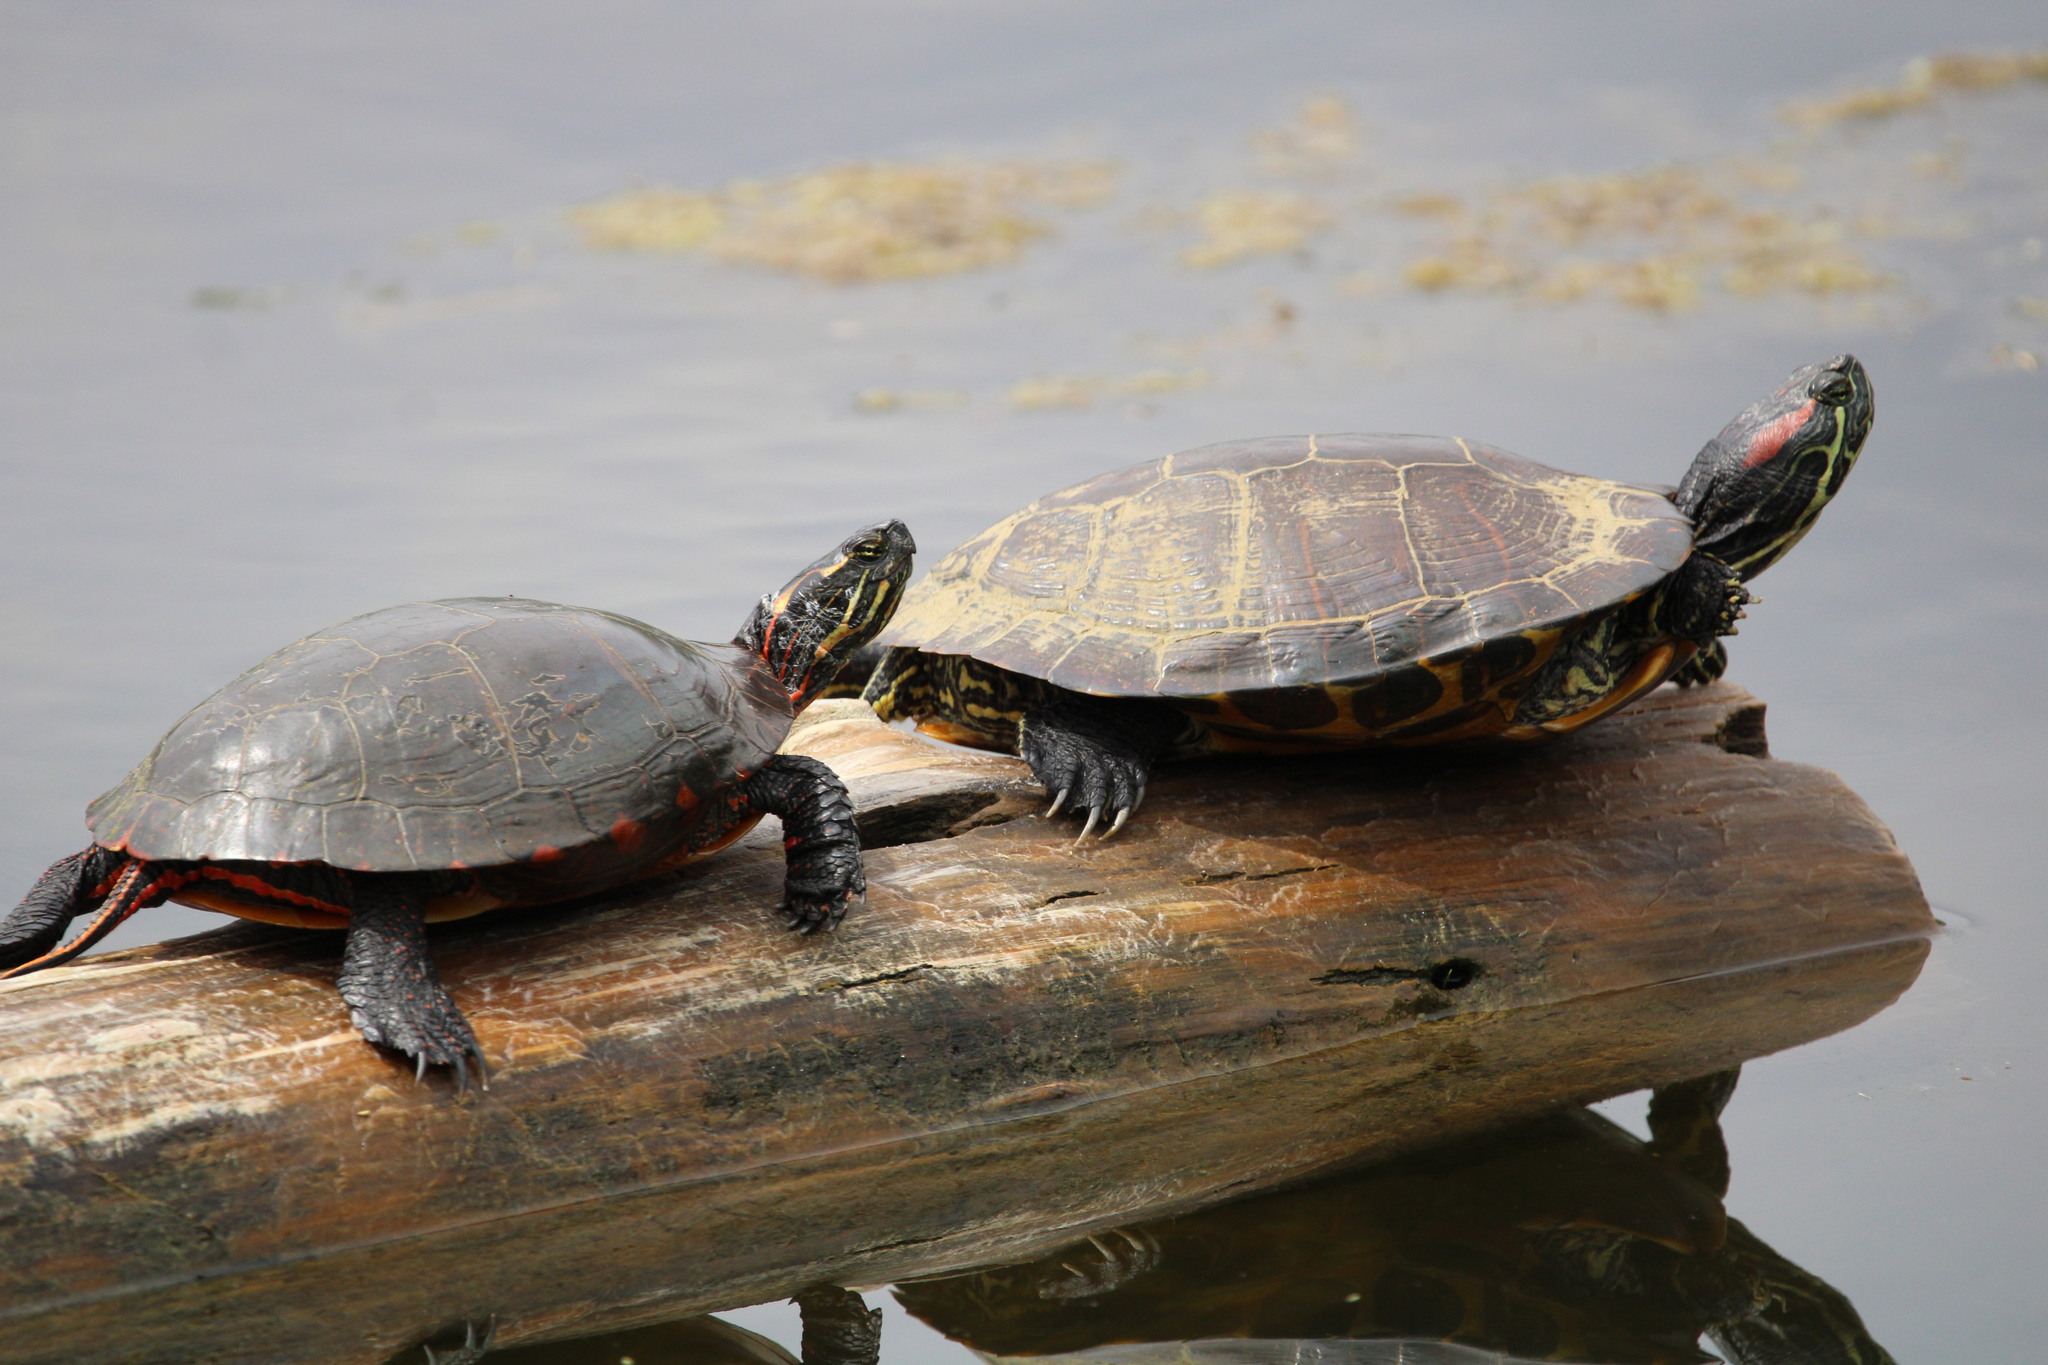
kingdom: Animalia
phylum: Chordata
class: Testudines
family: Emydidae
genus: Chrysemys
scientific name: Chrysemys picta
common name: Painted turtle
